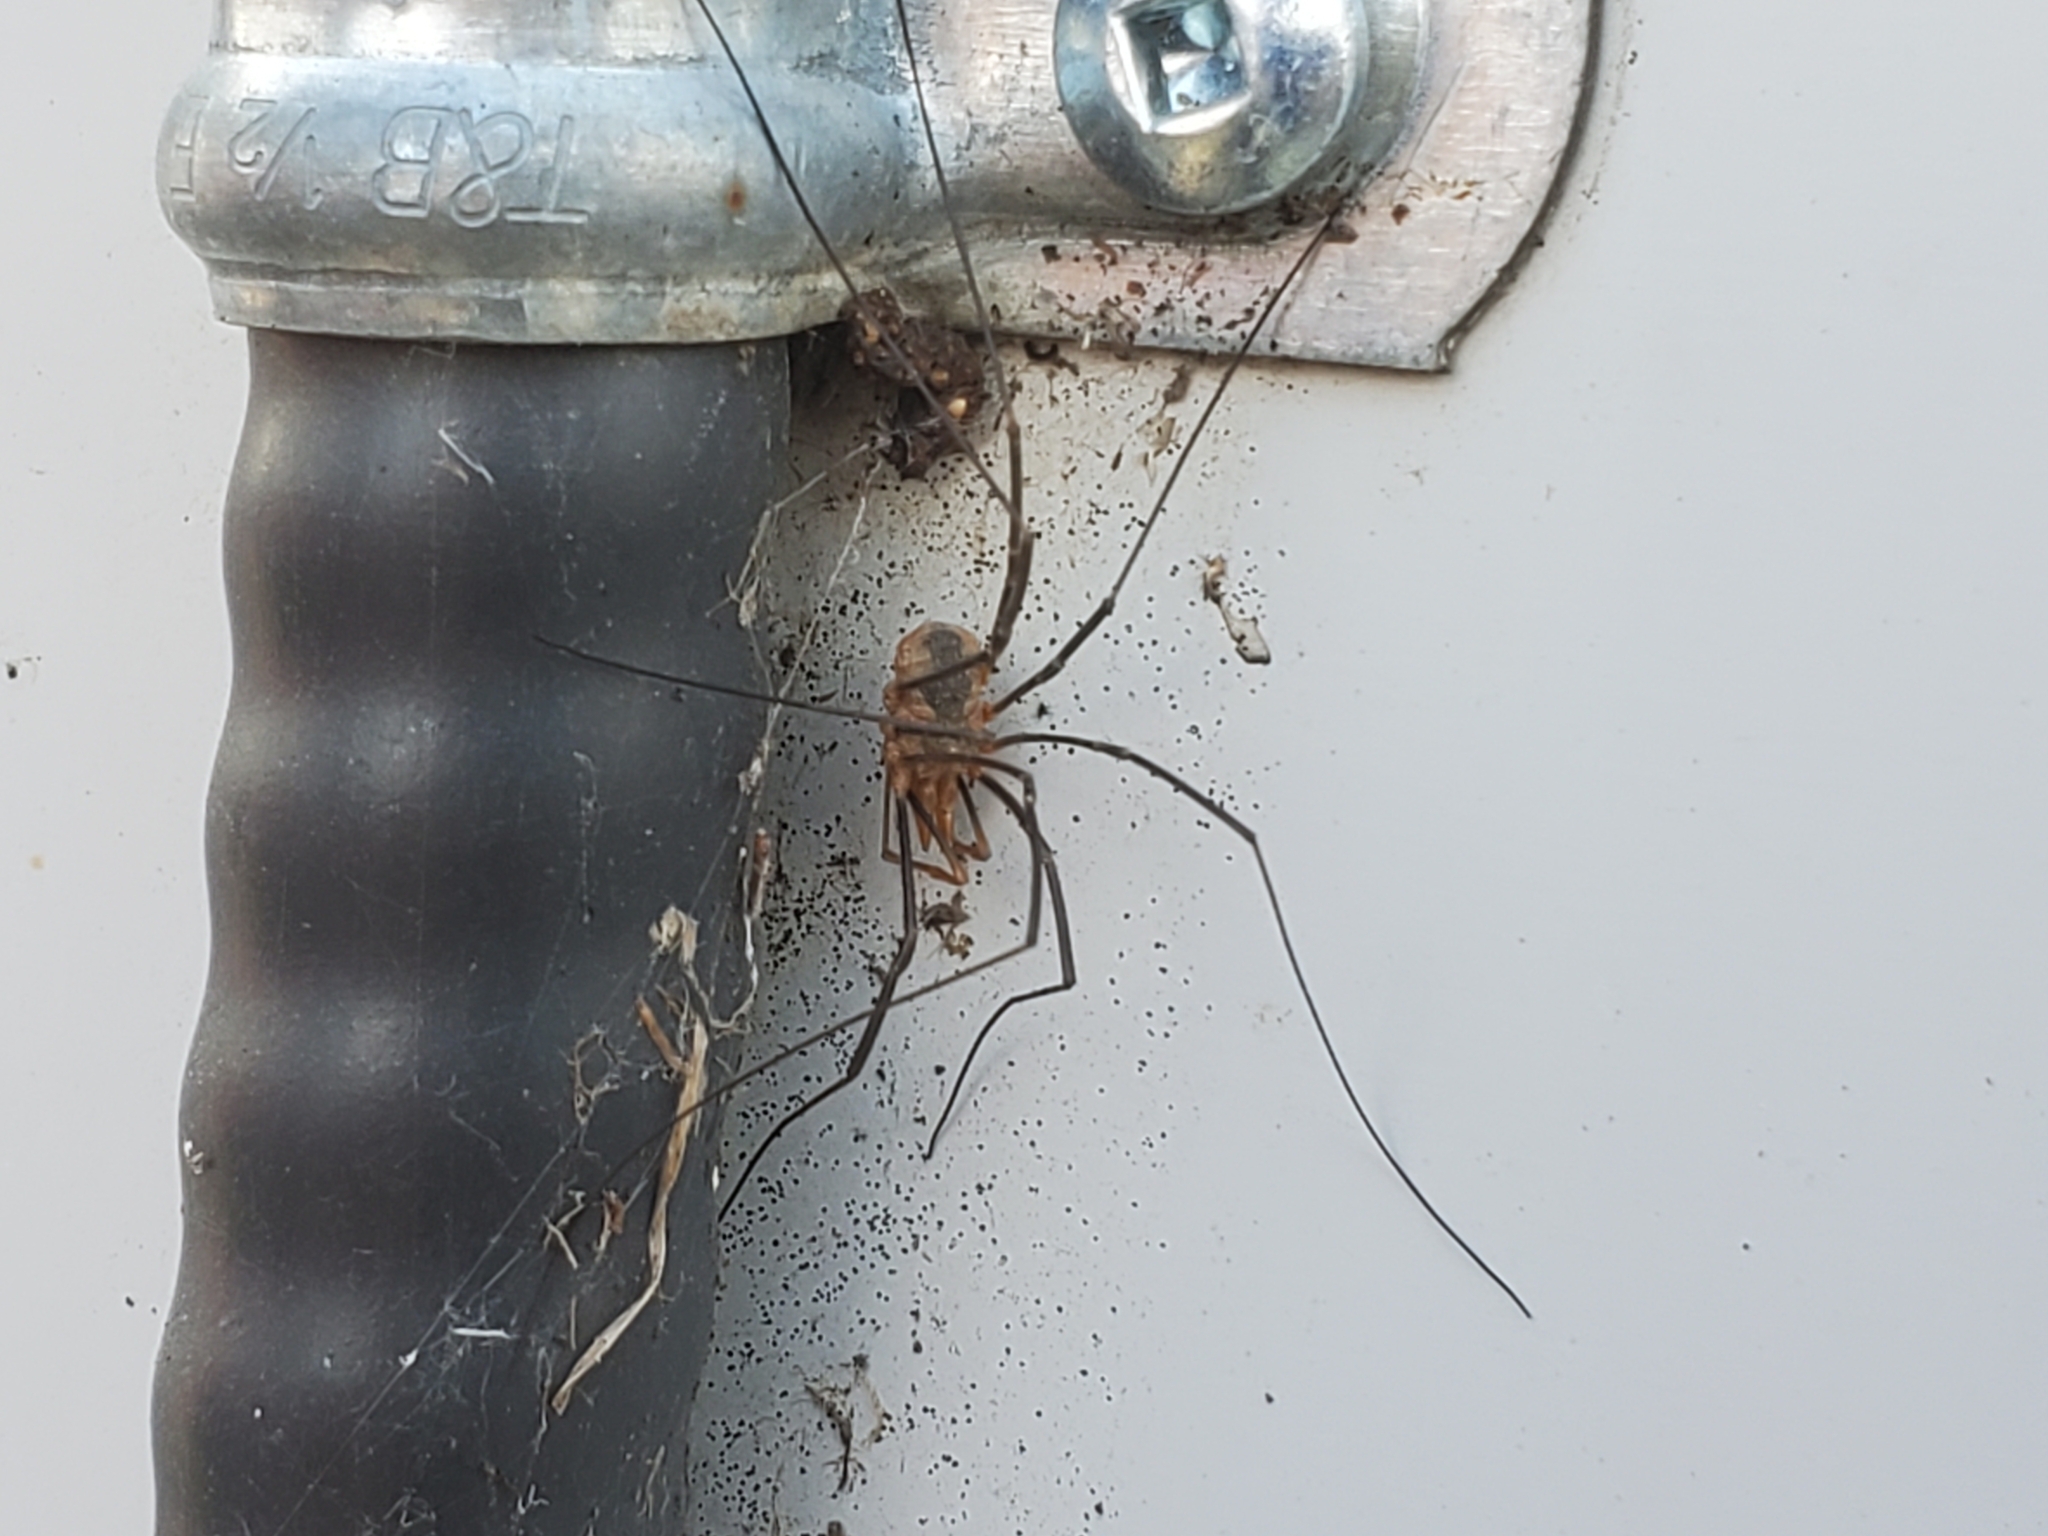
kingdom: Animalia
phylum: Arthropoda
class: Arachnida
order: Opiliones
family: Phalangiidae
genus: Phalangium
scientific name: Phalangium opilio
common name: Daddy longleg
